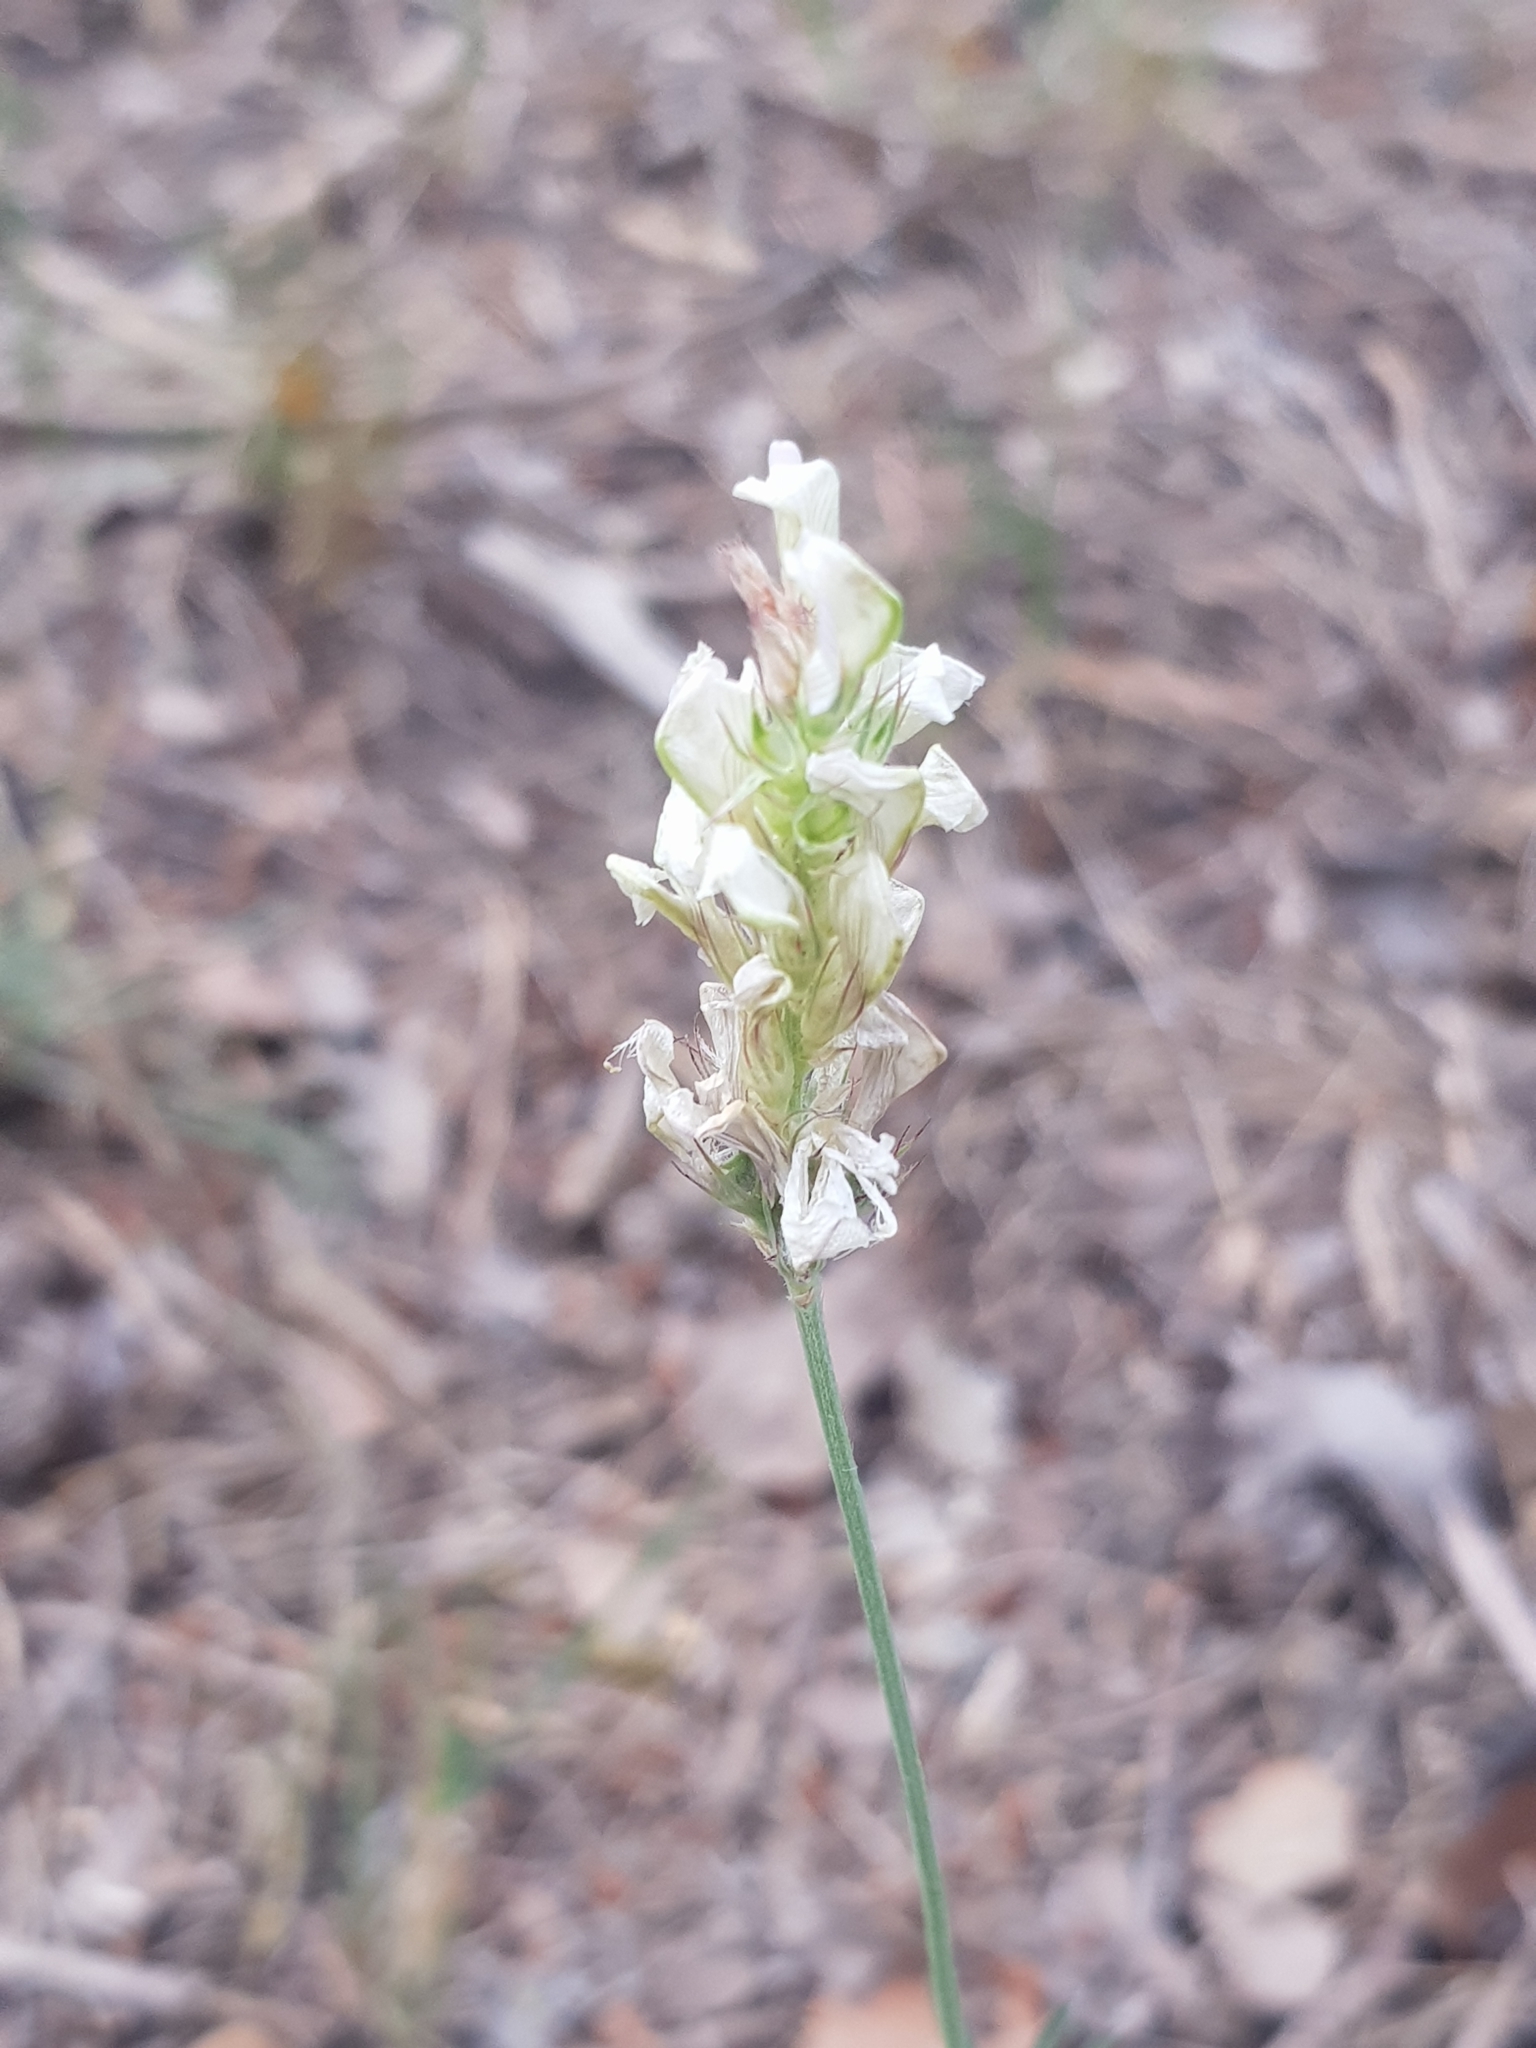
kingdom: Plantae
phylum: Tracheophyta
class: Magnoliopsida
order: Fabales
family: Fabaceae
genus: Onobrychis
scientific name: Onobrychis alba
